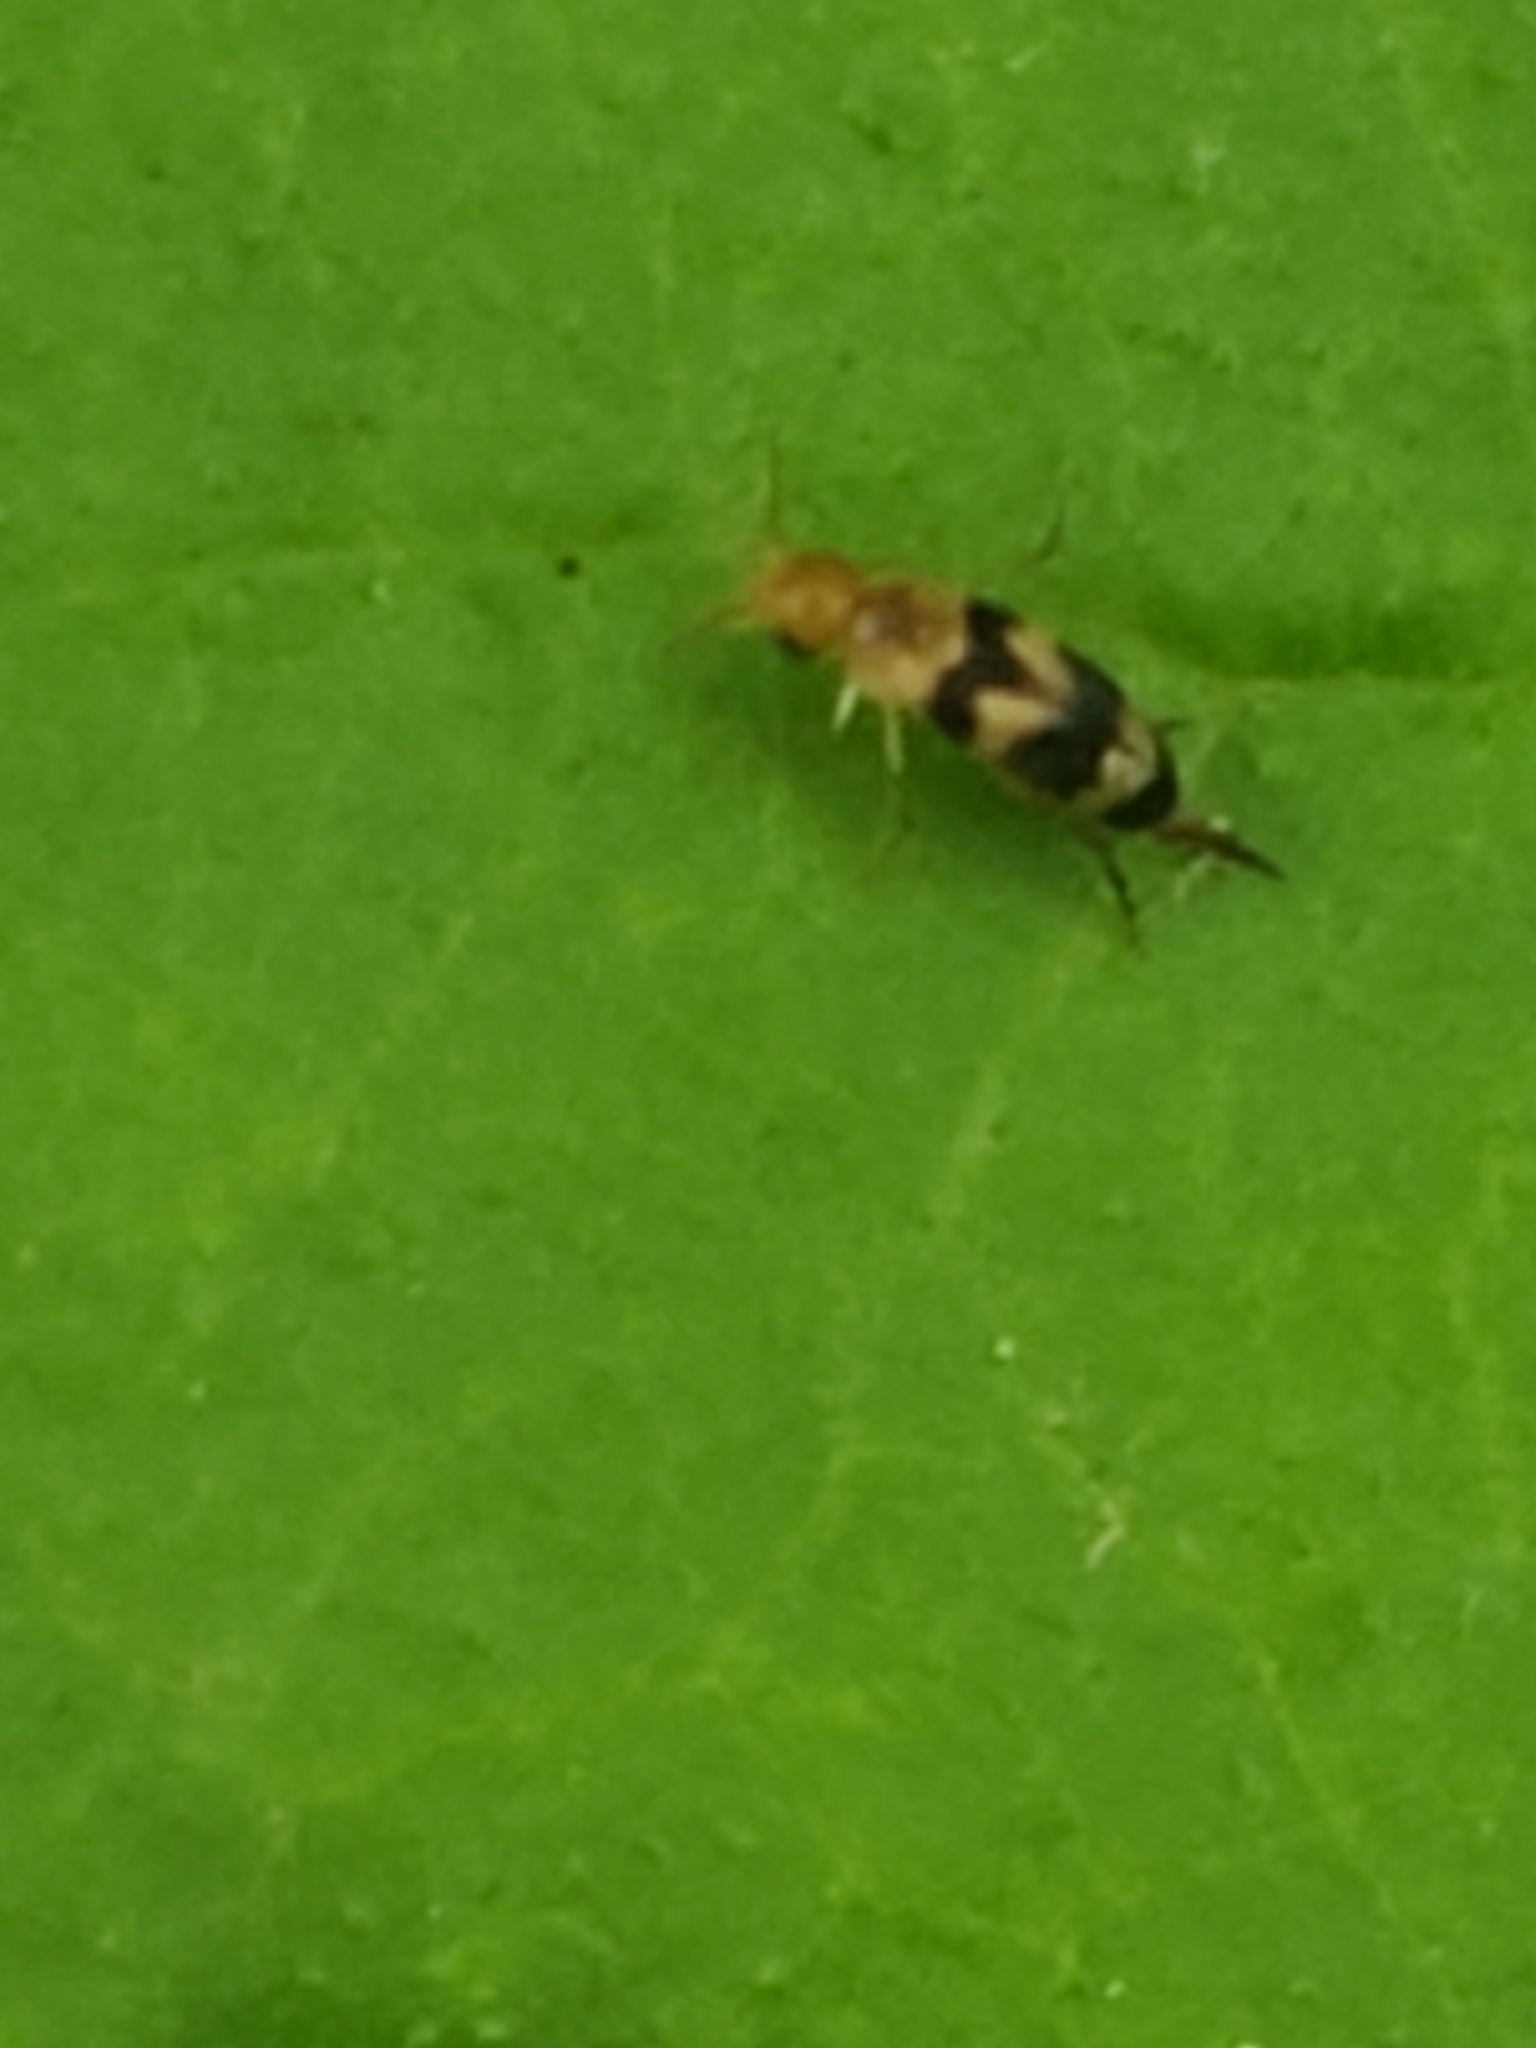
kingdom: Animalia
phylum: Arthropoda
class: Insecta
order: Coleoptera
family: Mordellidae
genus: Mordellistena
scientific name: Mordellistena trifasciata
